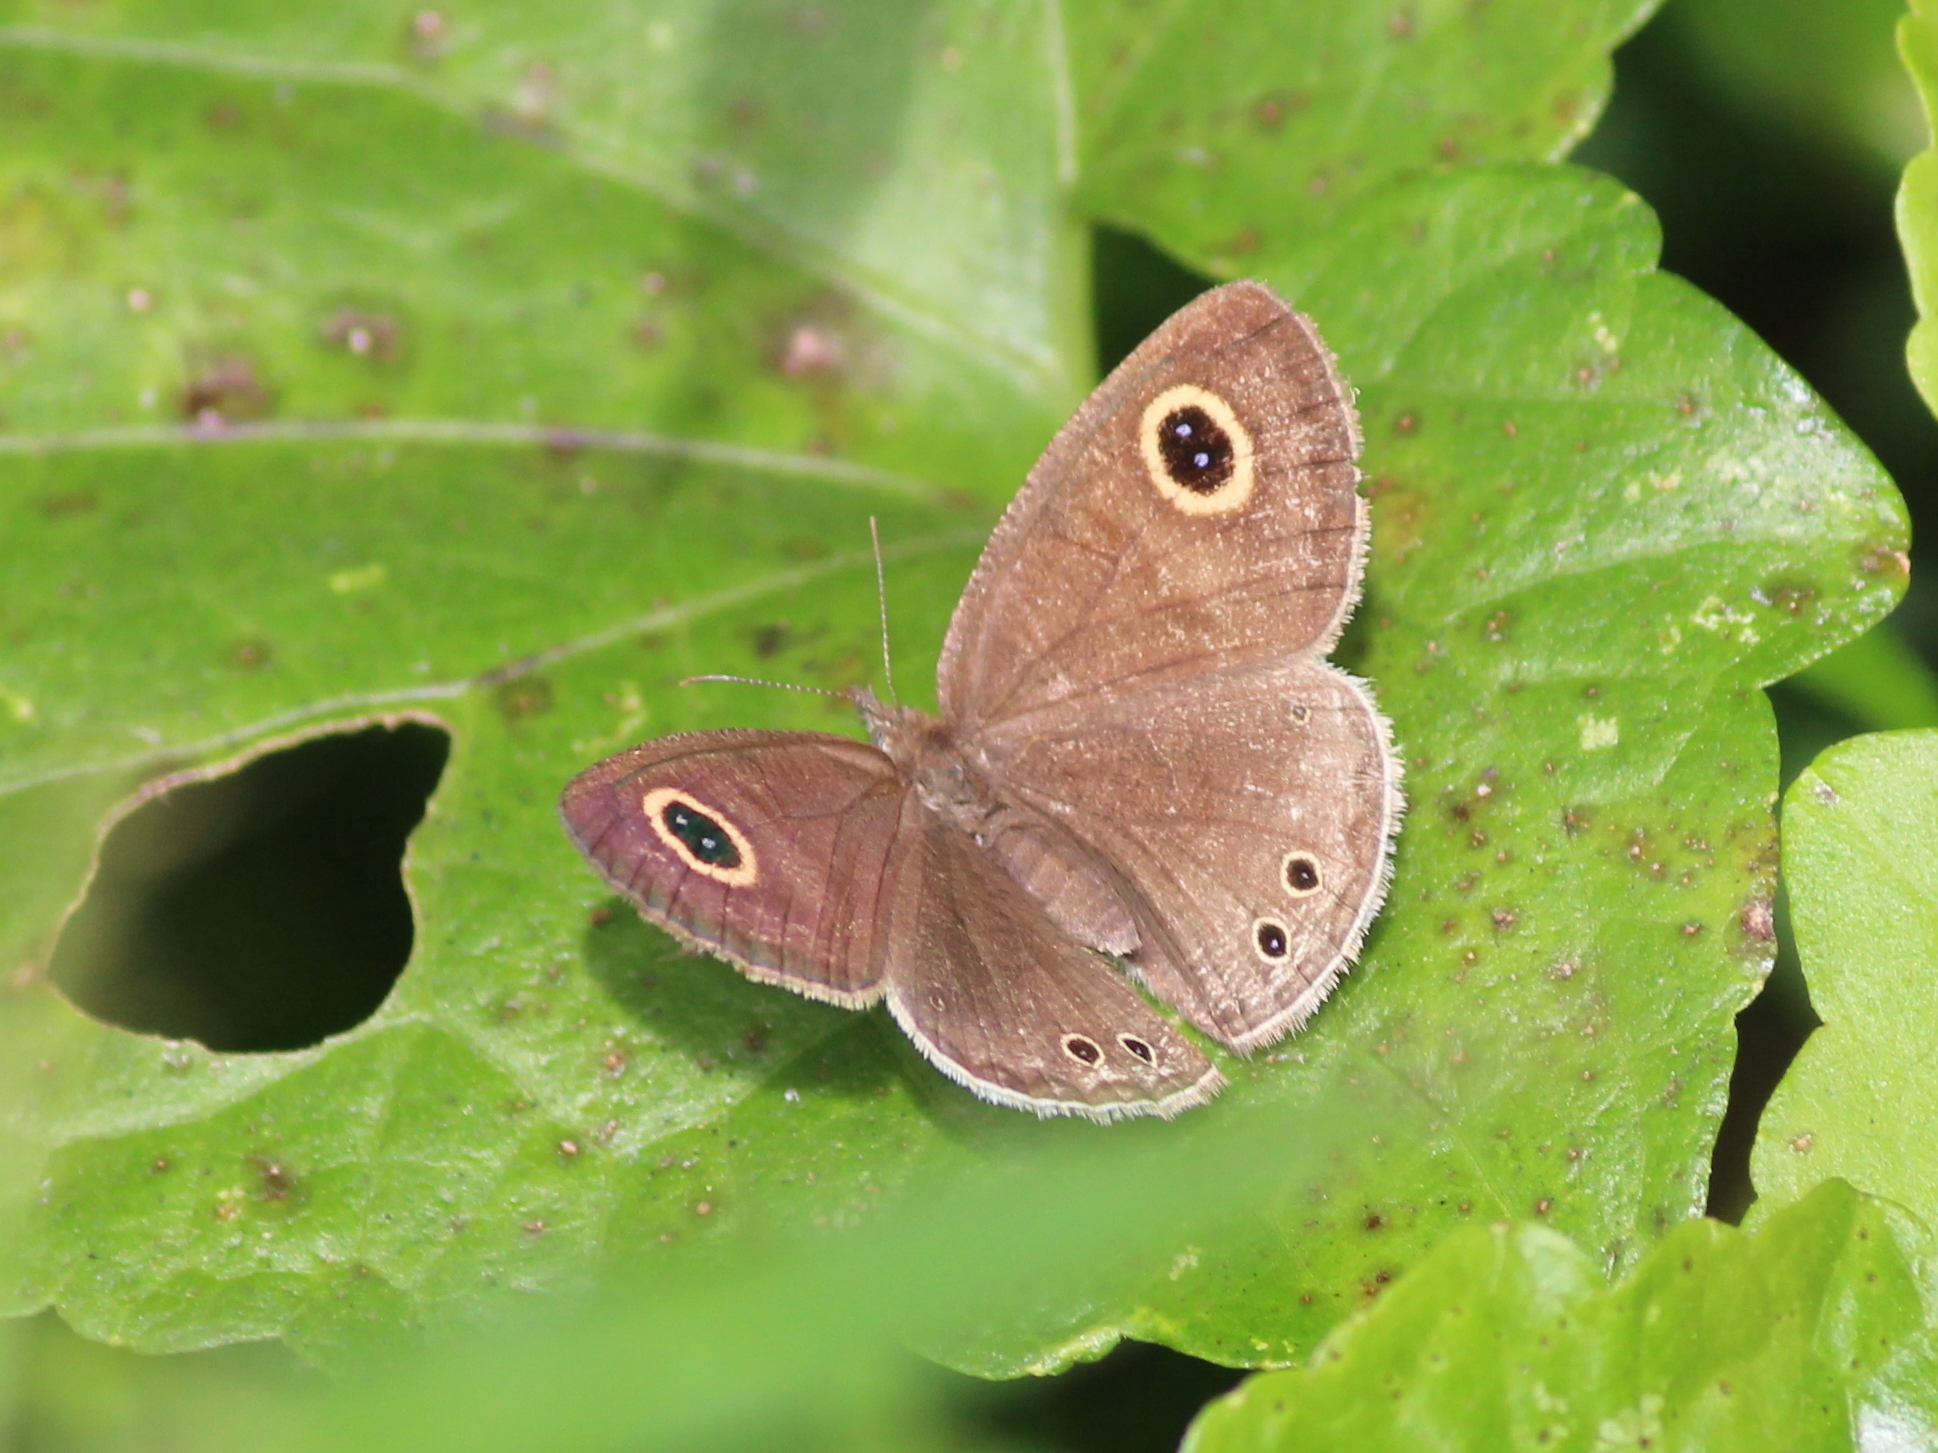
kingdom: Animalia
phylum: Arthropoda
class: Insecta
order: Lepidoptera
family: Nymphalidae
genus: Ypthima
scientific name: Ypthima huebneri
